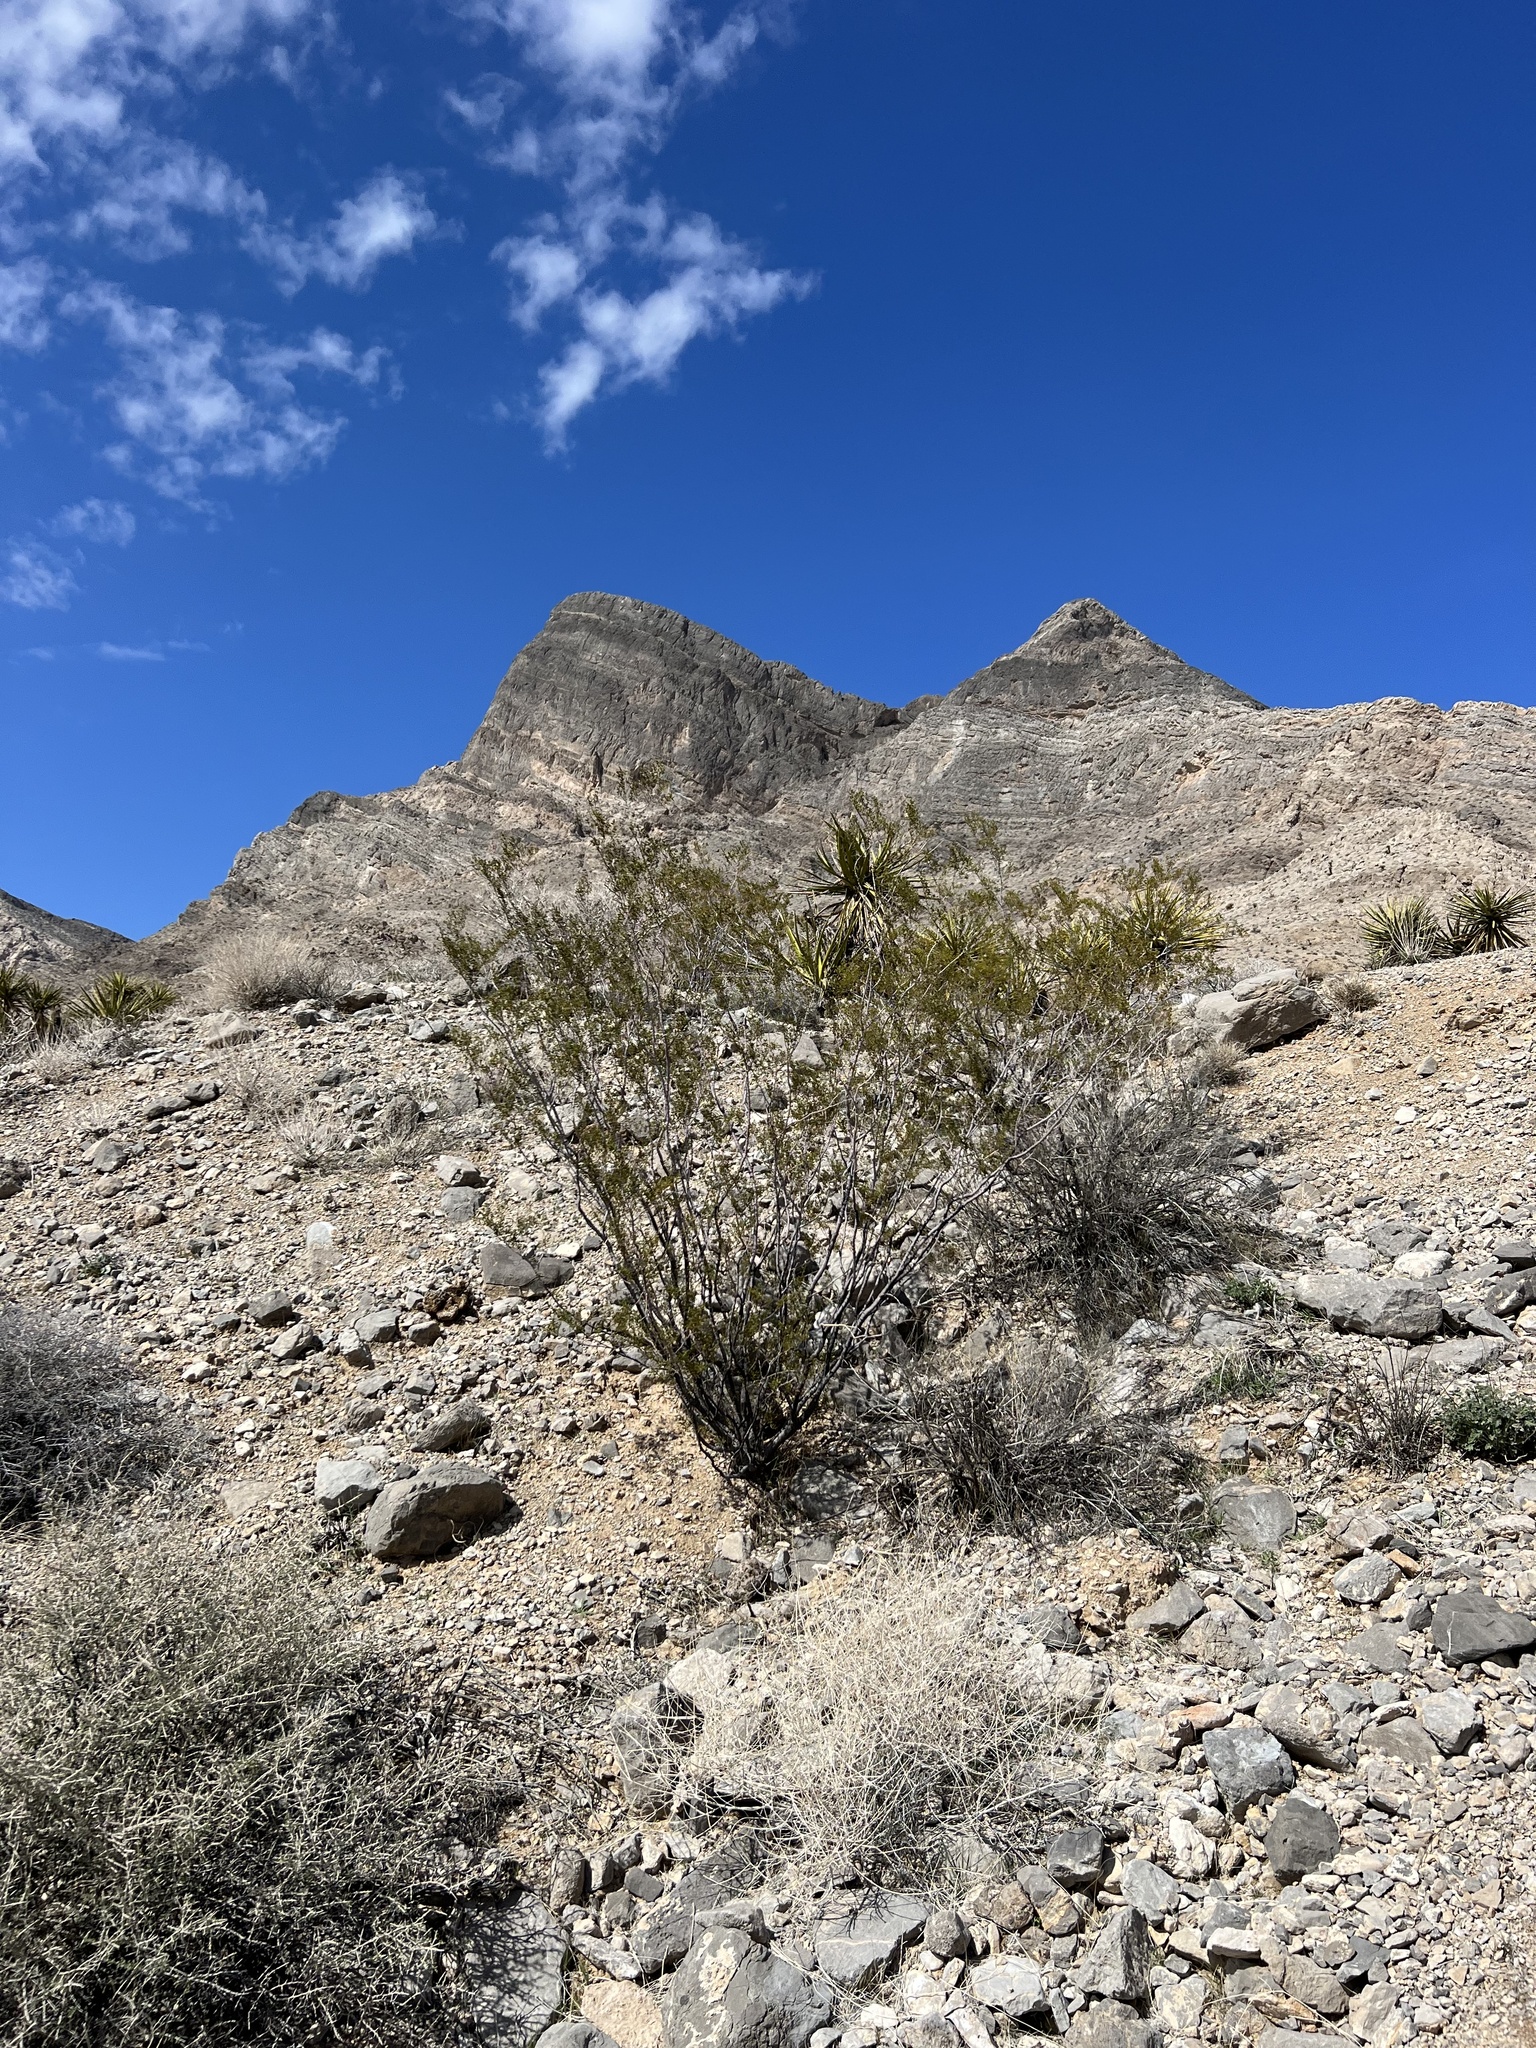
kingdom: Plantae
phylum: Tracheophyta
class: Magnoliopsida
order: Zygophyllales
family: Zygophyllaceae
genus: Larrea
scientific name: Larrea tridentata
